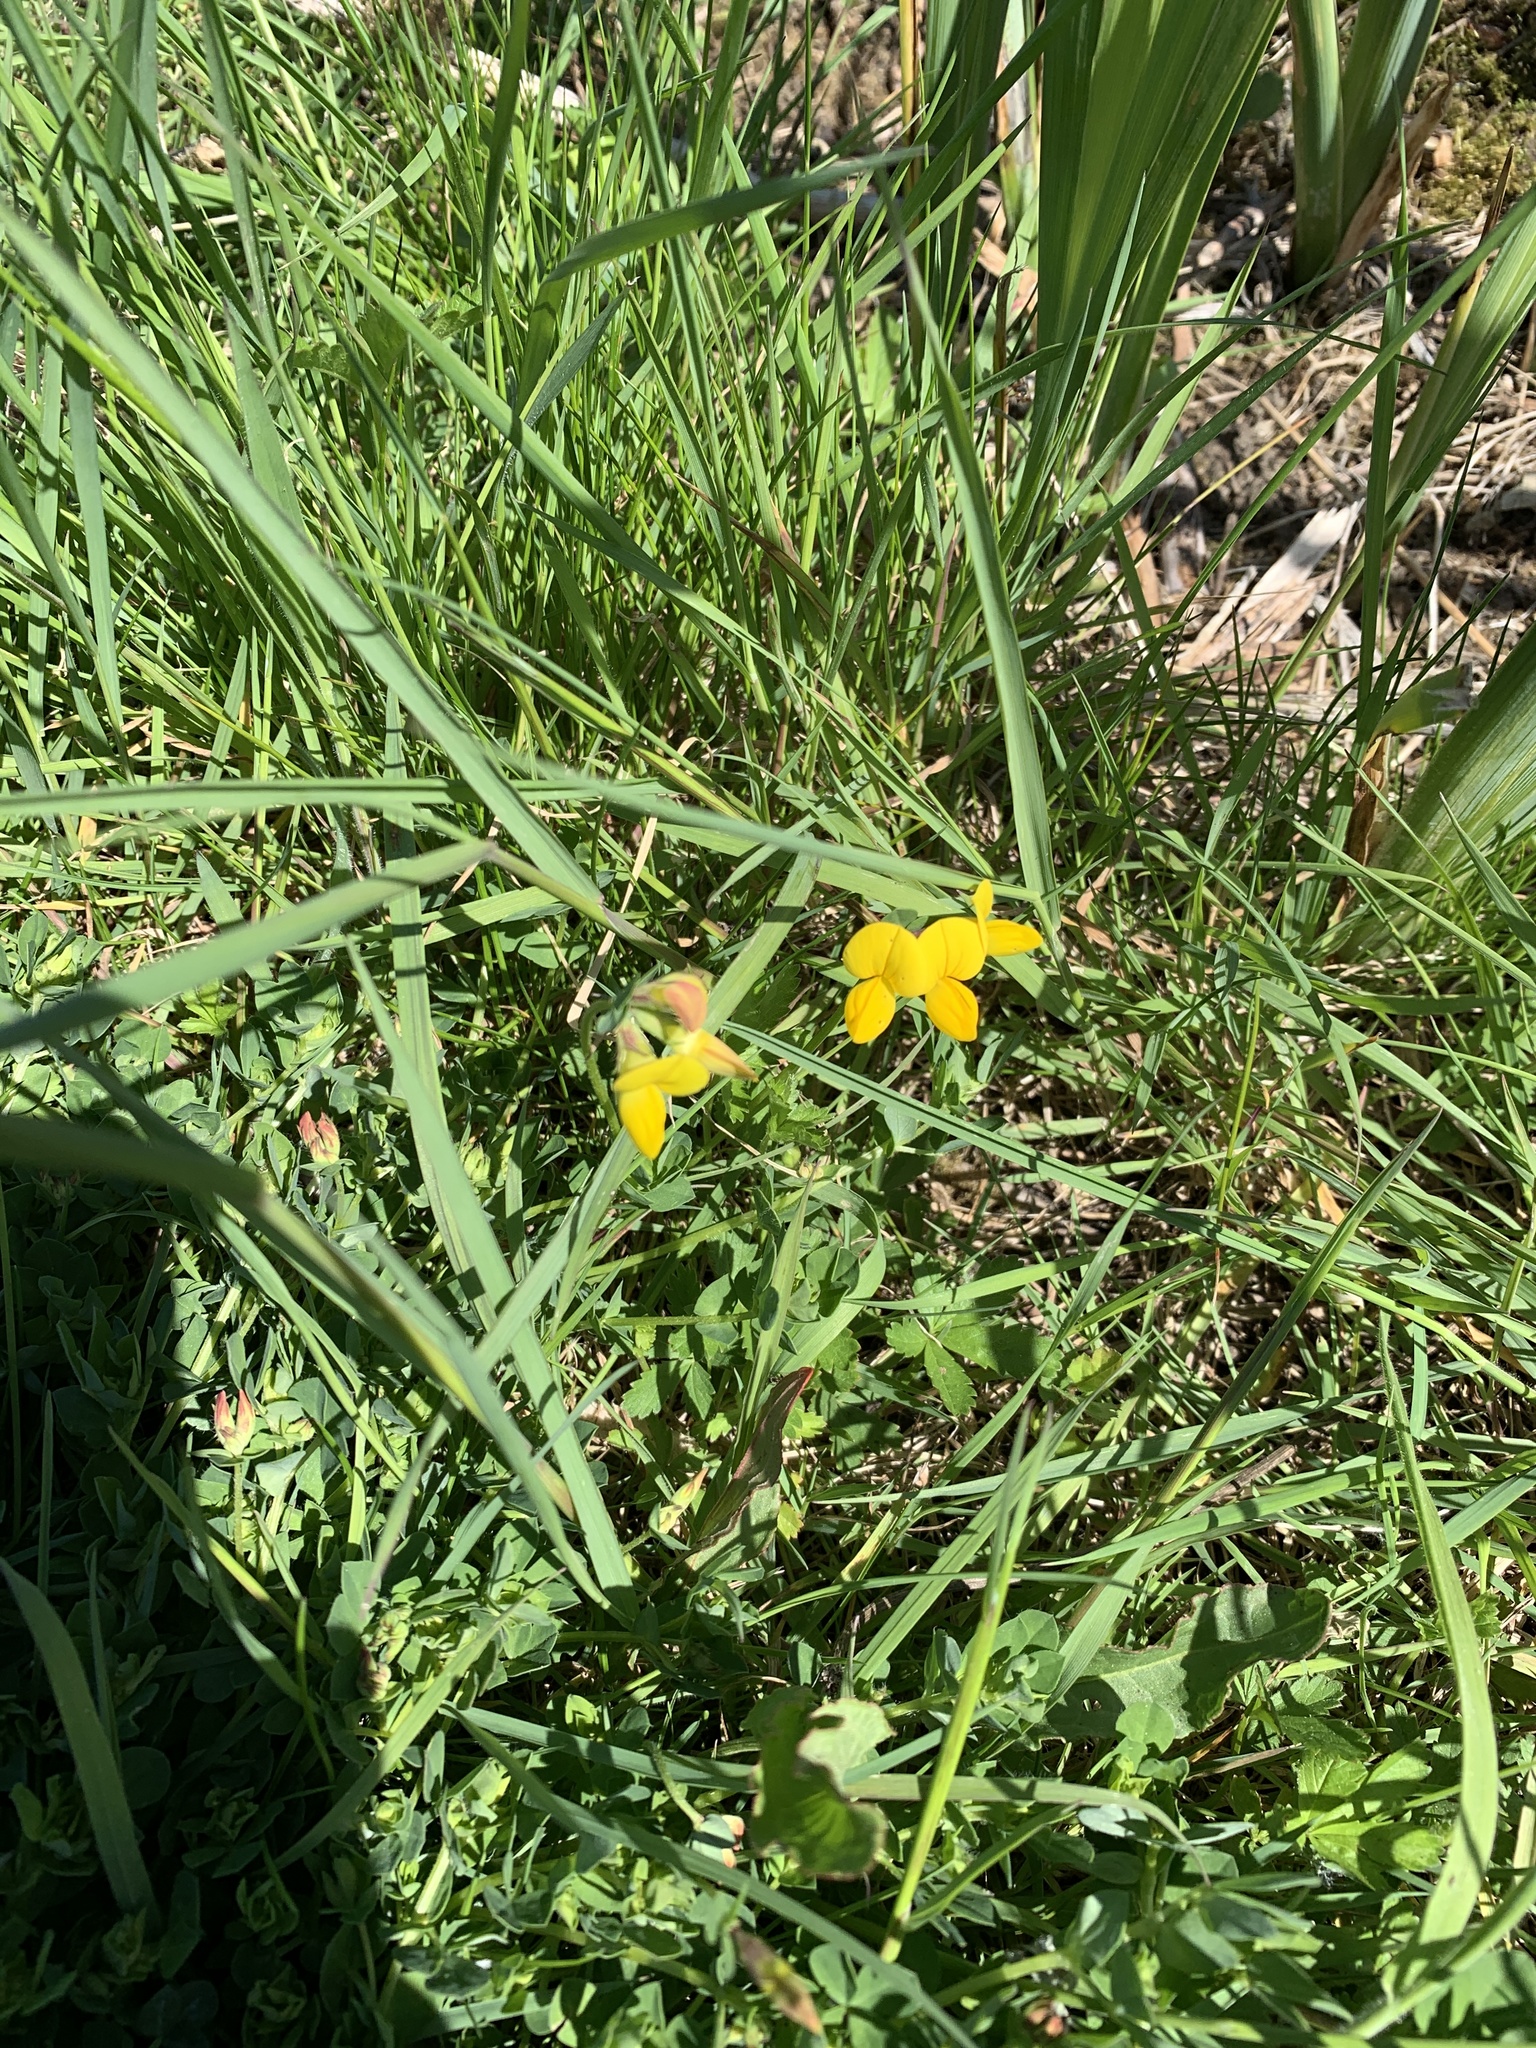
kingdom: Plantae
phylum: Tracheophyta
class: Magnoliopsida
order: Fabales
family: Fabaceae
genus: Lotus
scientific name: Lotus corniculatus
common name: Common bird's-foot-trefoil
